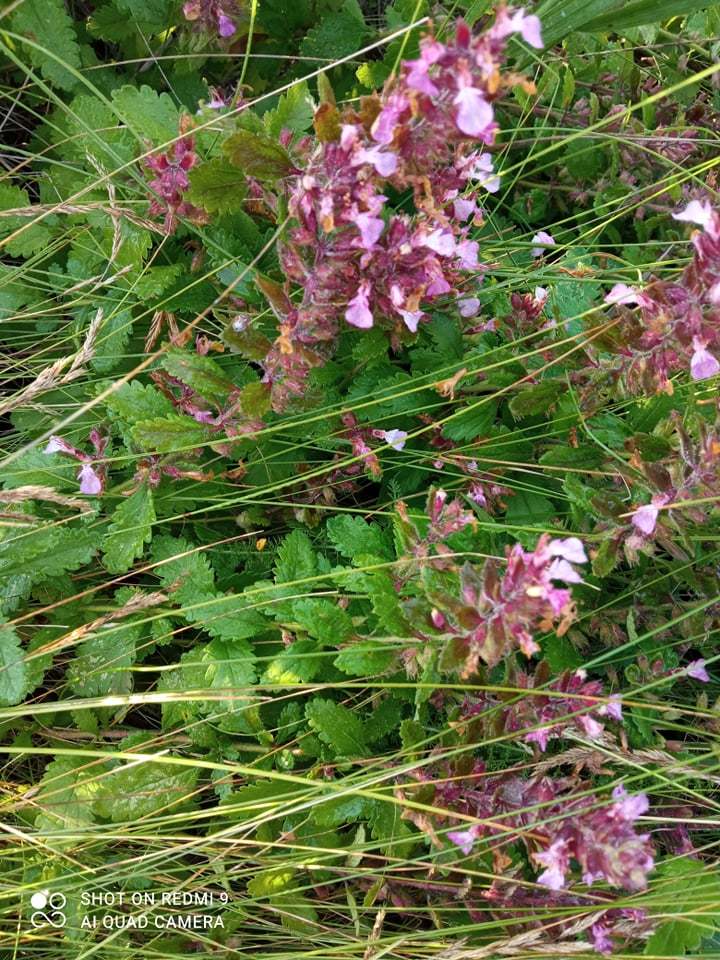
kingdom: Plantae
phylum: Tracheophyta
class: Magnoliopsida
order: Lamiales
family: Lamiaceae
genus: Teucrium
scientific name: Teucrium chamaedrys
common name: Wall germander
